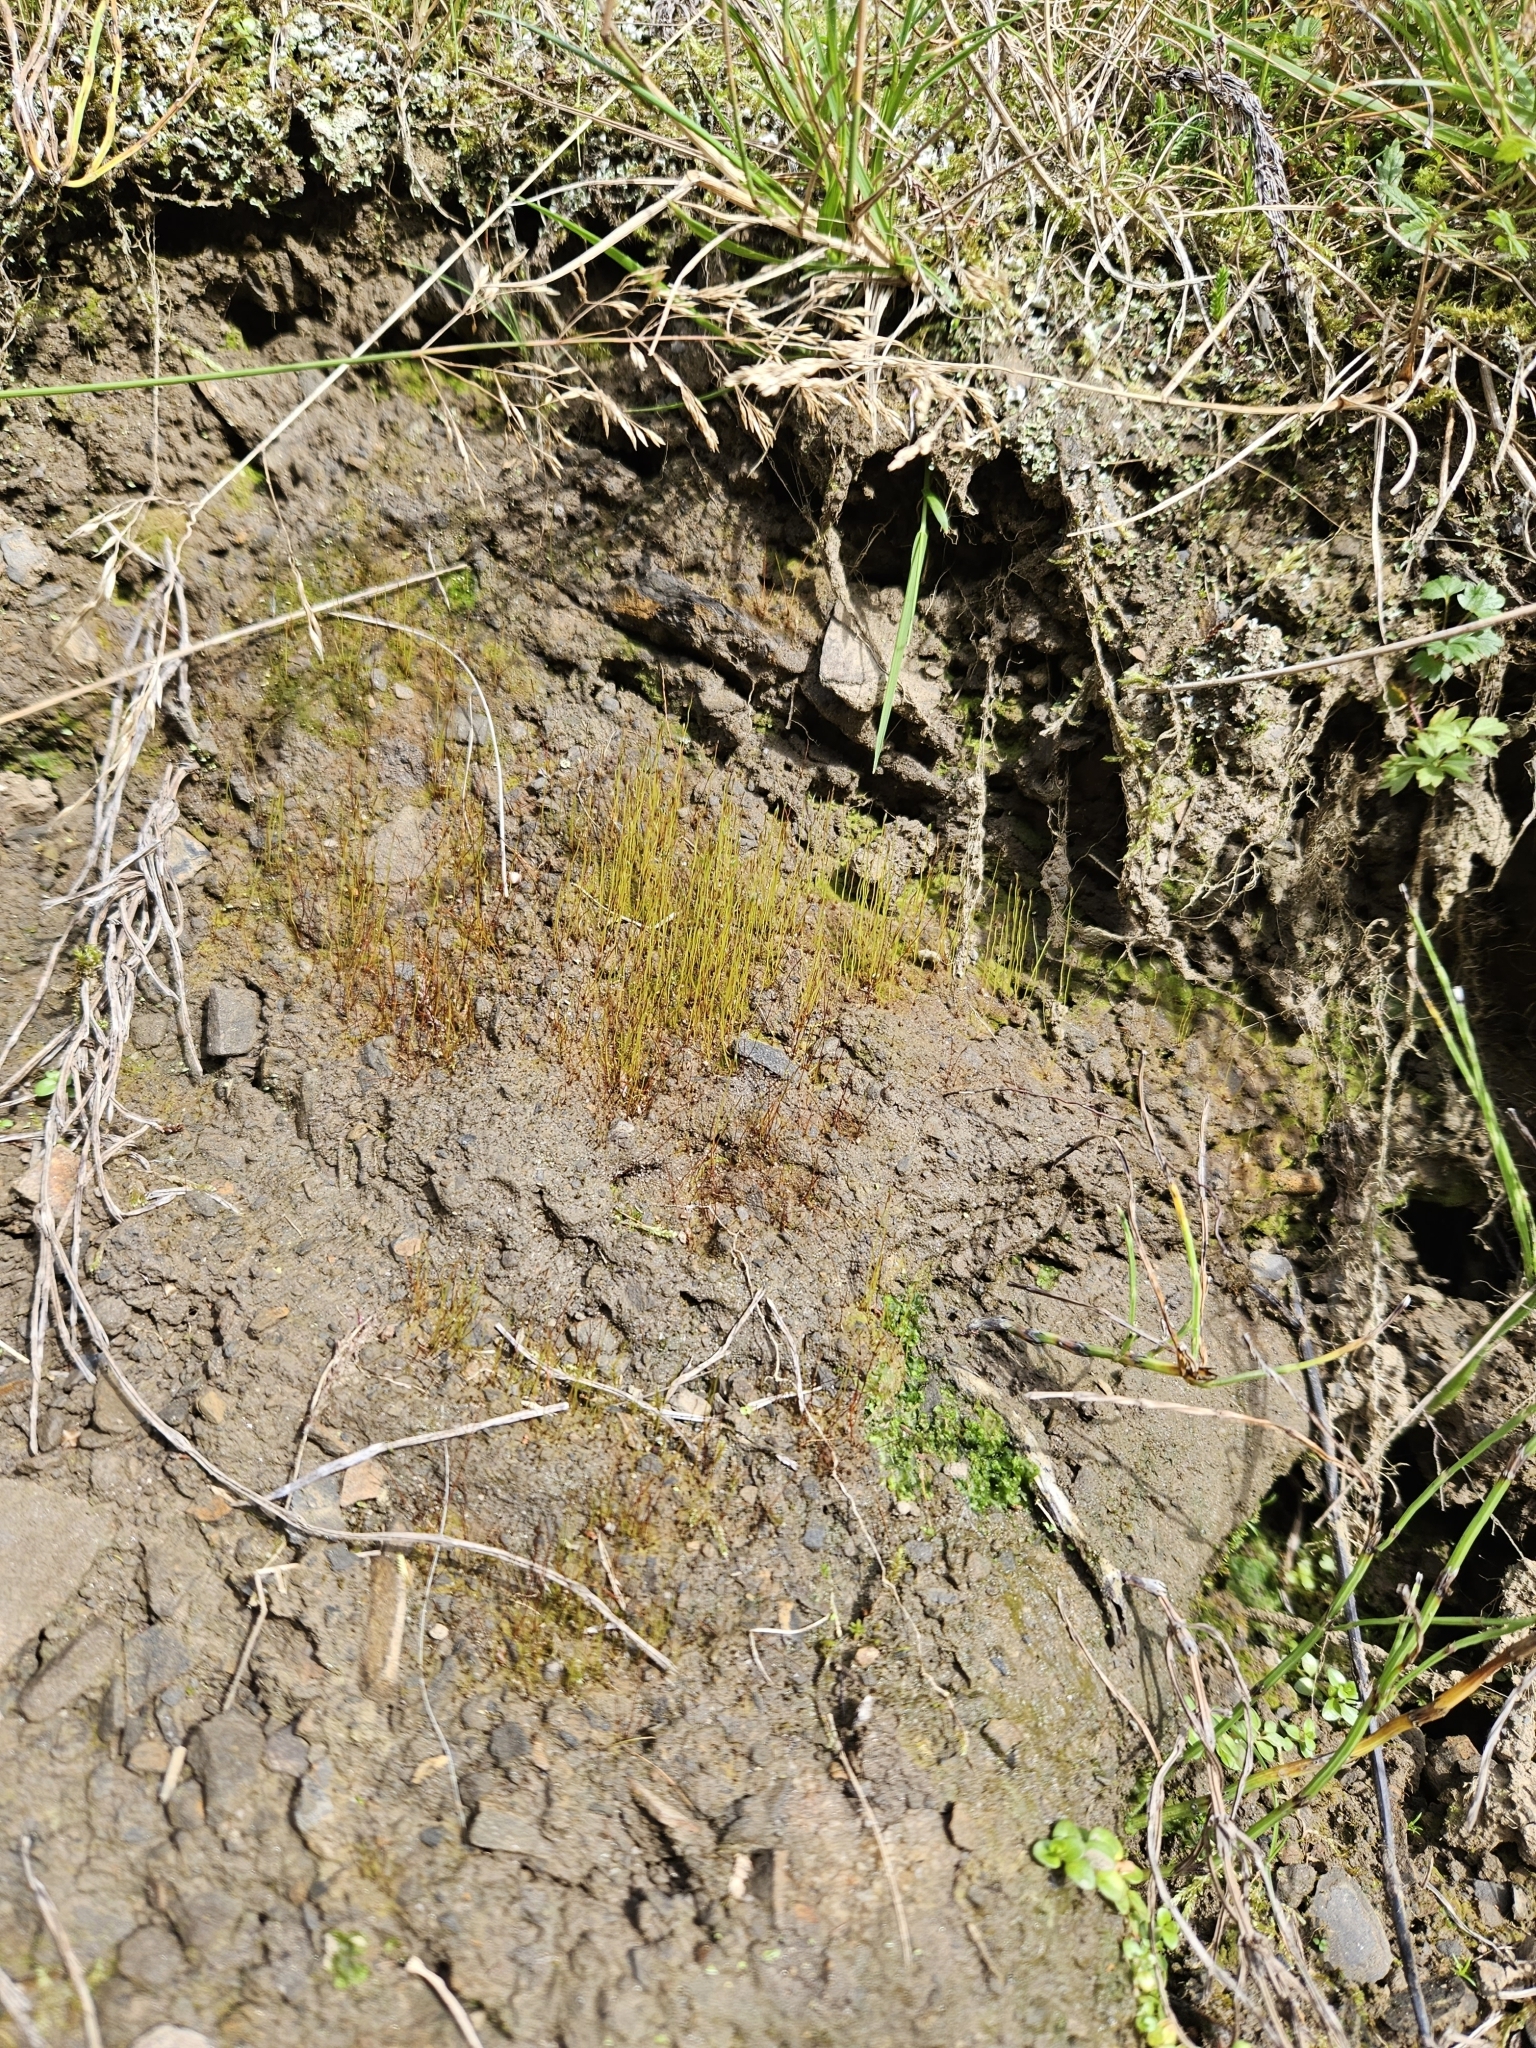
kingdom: Plantae
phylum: Bryophyta
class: Bryopsida
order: Disceliales
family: Disceliaceae
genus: Discelium
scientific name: Discelium nudum
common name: Naked flag moss
